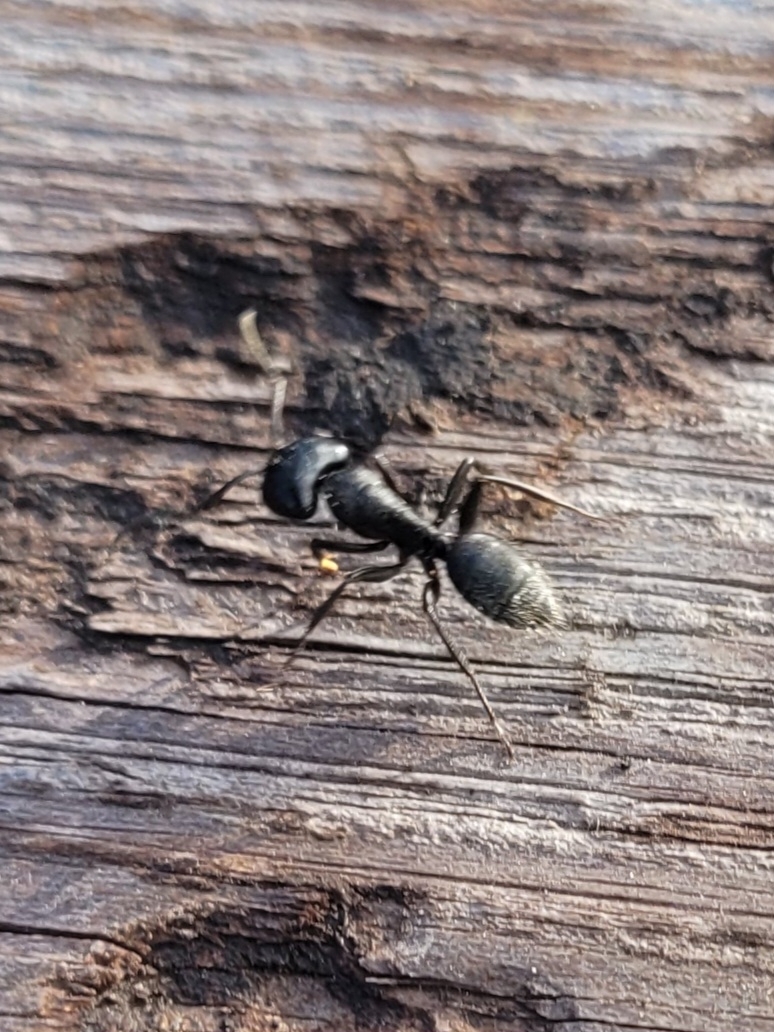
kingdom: Animalia
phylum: Arthropoda
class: Insecta
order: Hymenoptera
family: Formicidae
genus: Camponotus
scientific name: Camponotus vagus
